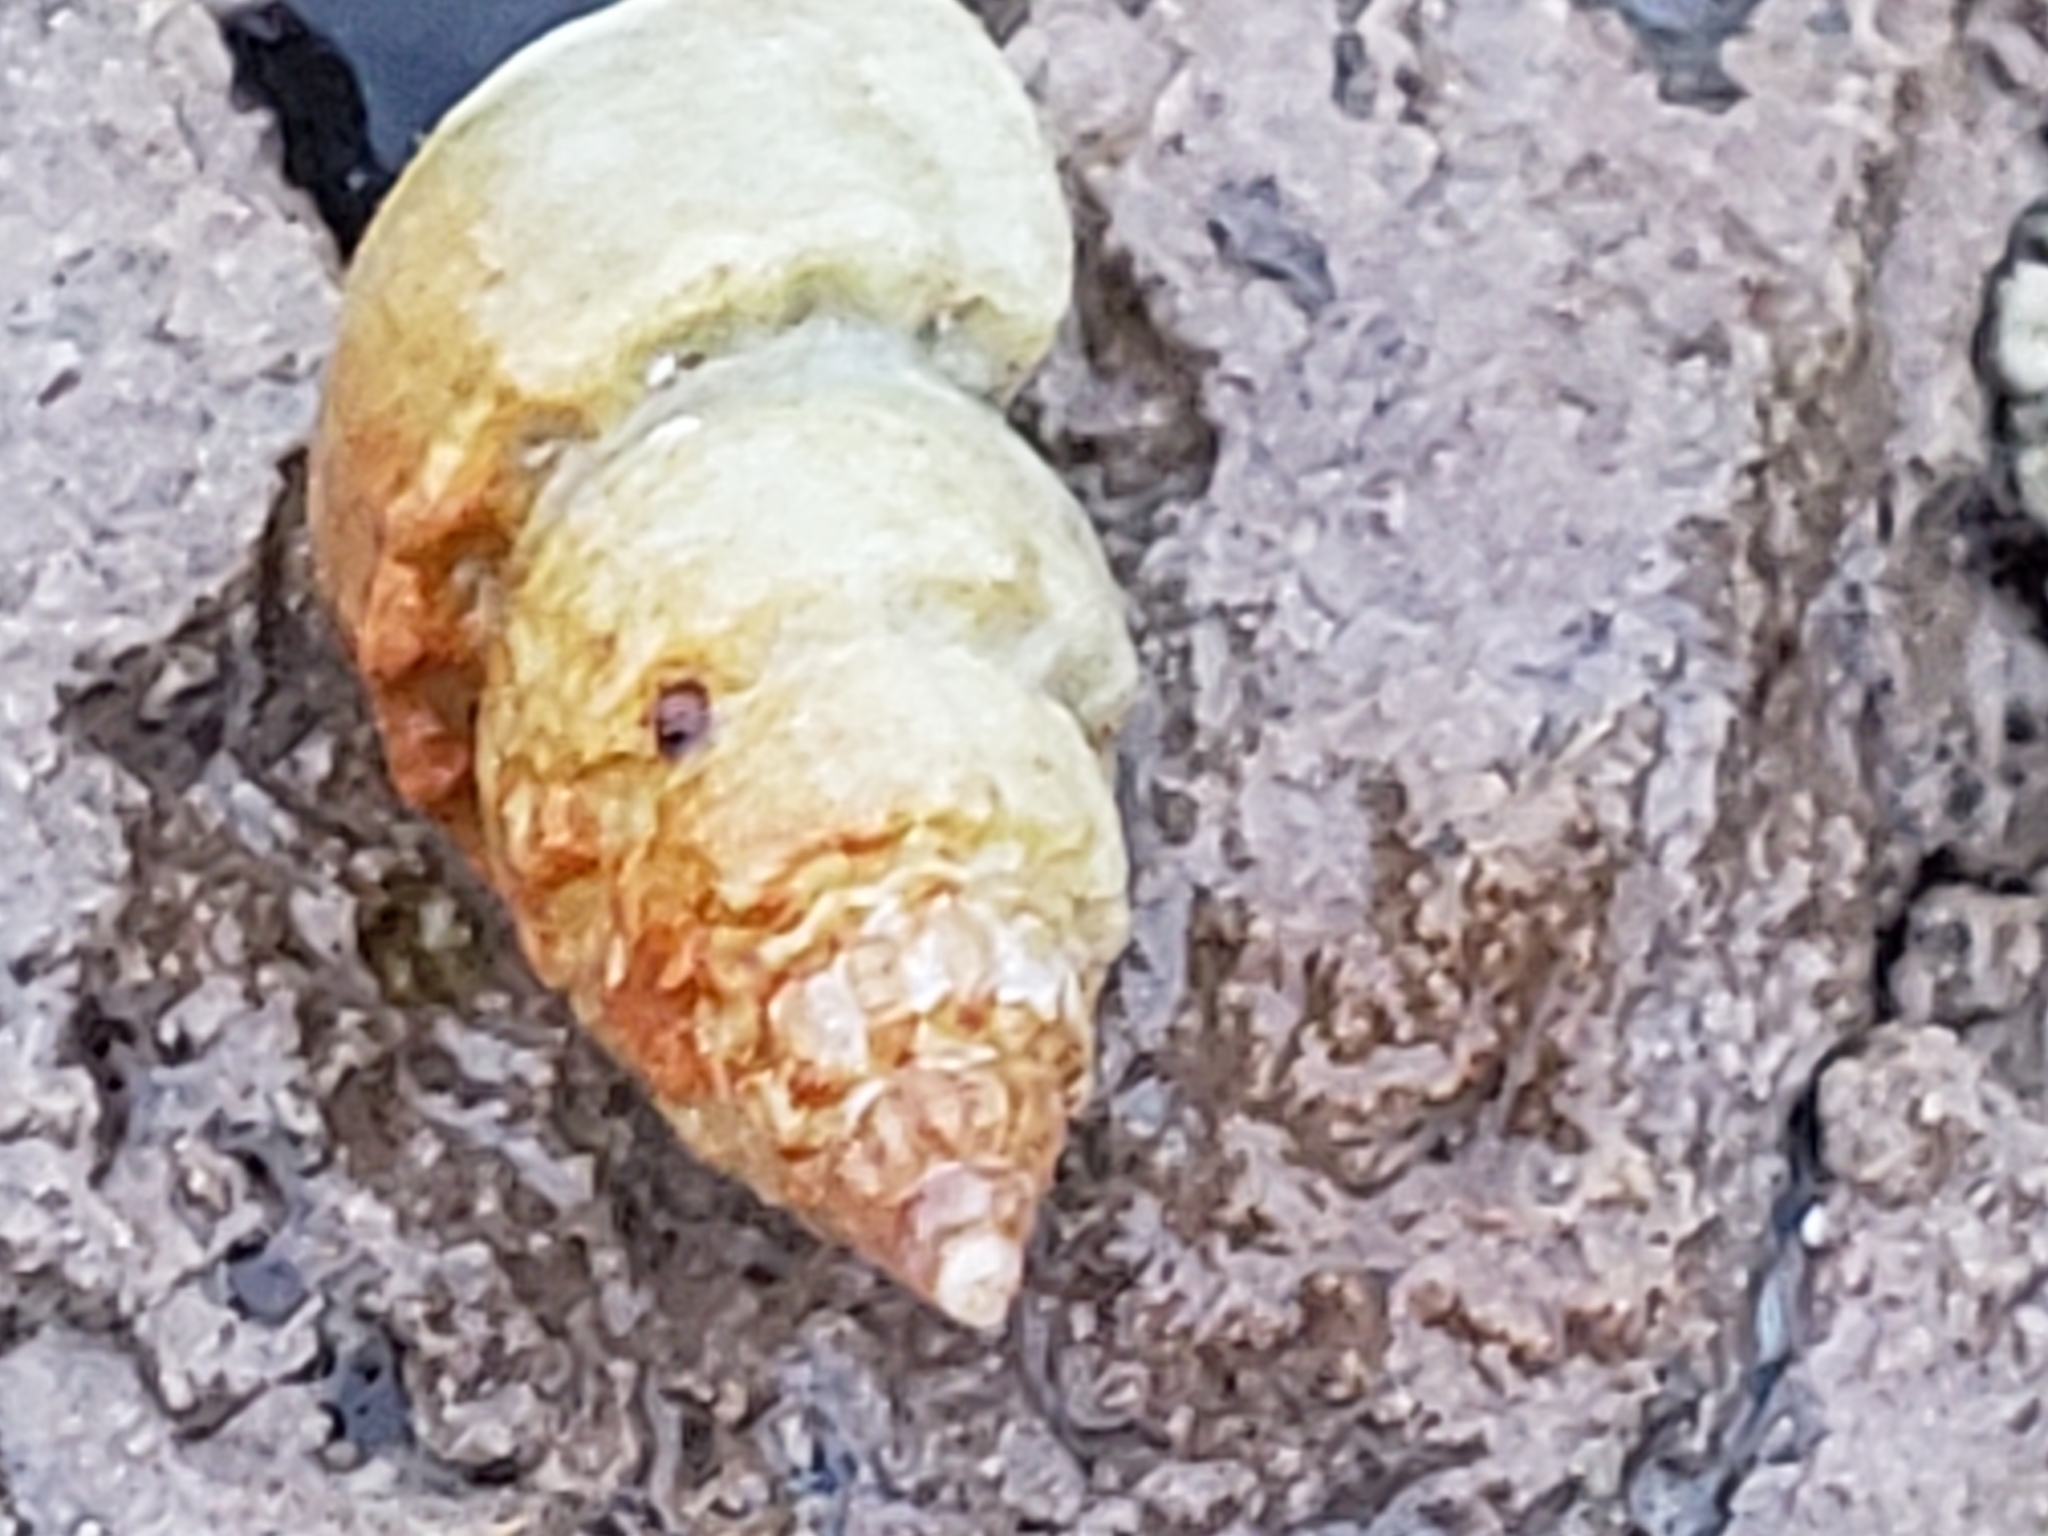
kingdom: Animalia
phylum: Mollusca
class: Gastropoda
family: Epitoniidae
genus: Opalia
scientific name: Opalia funiculata
